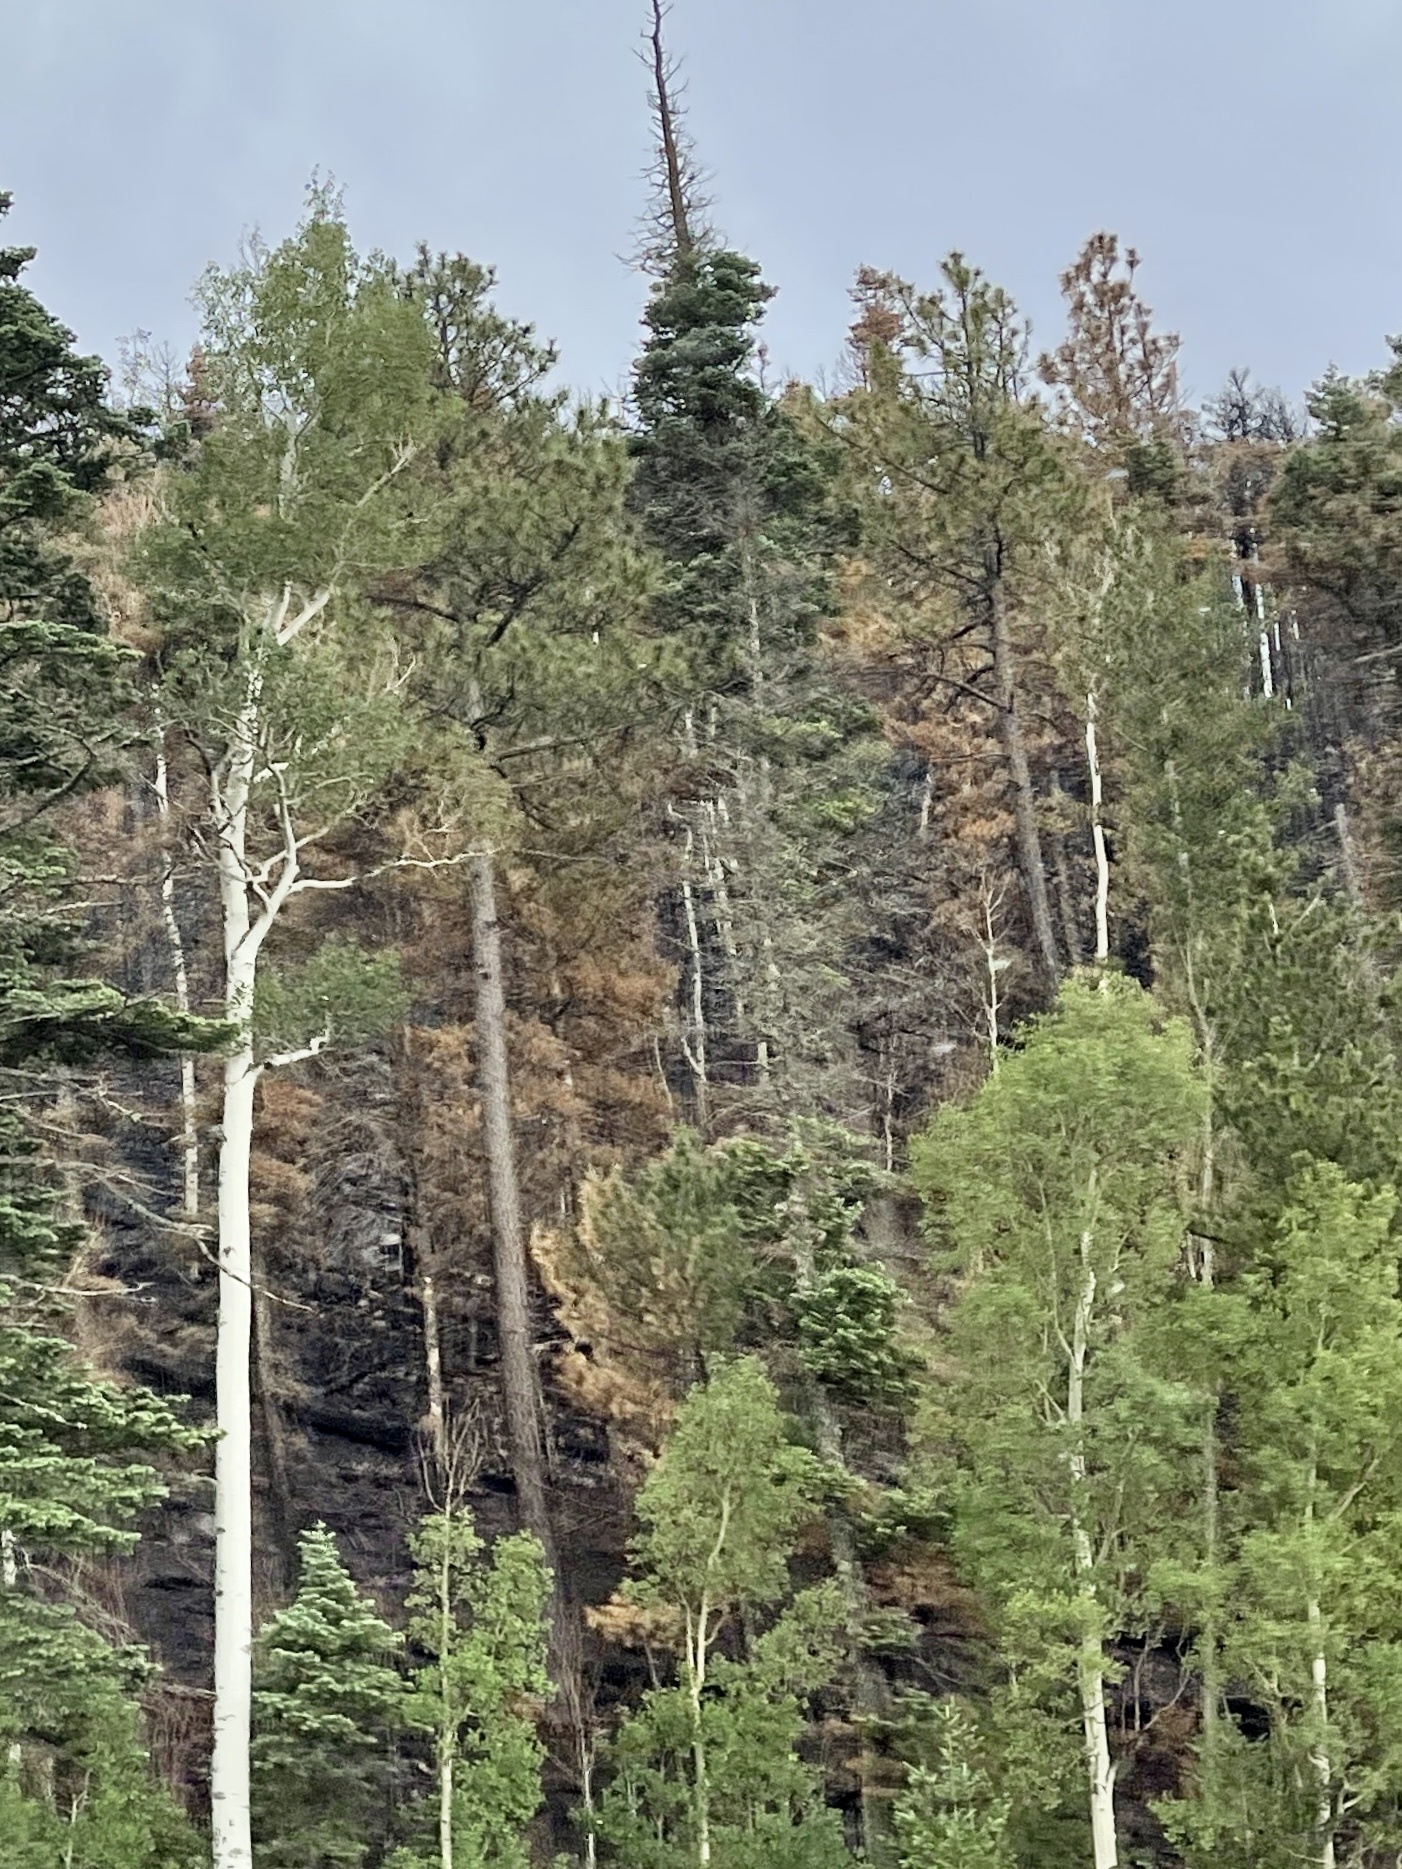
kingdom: Plantae
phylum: Tracheophyta
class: Pinopsida
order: Pinales
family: Pinaceae
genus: Pinus
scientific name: Pinus ponderosa
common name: Western yellow-pine
